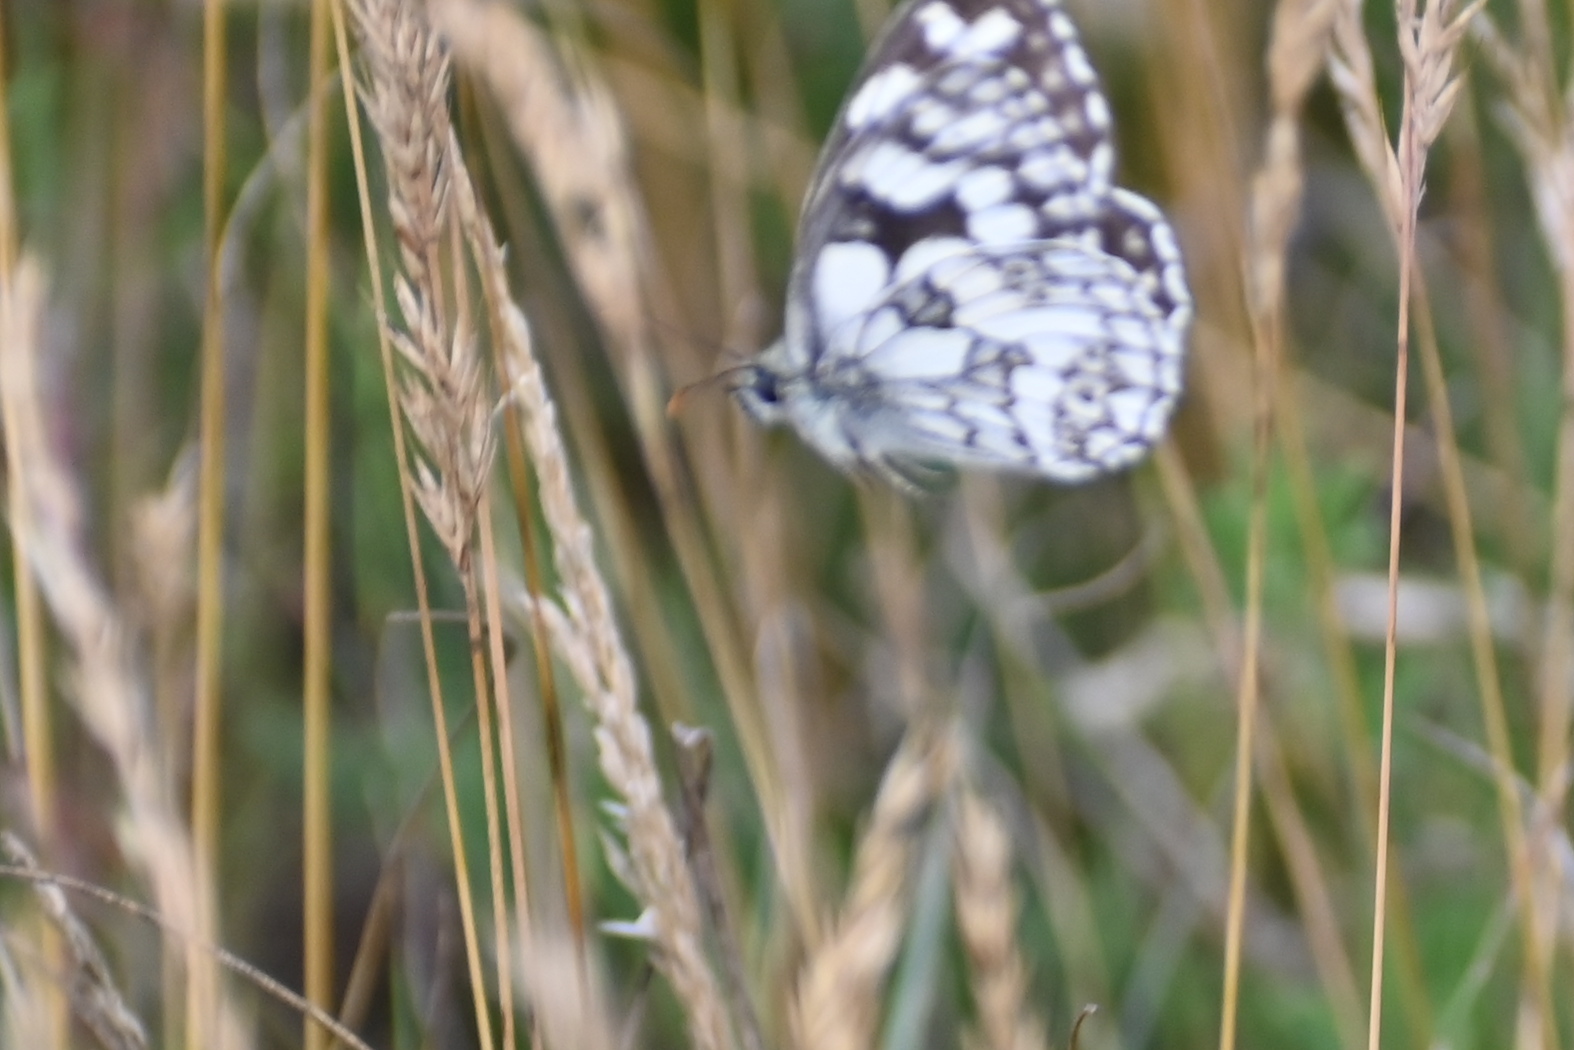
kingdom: Animalia
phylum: Arthropoda
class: Insecta
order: Lepidoptera
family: Nymphalidae
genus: Melanargia
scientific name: Melanargia galathea
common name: Marbled white
